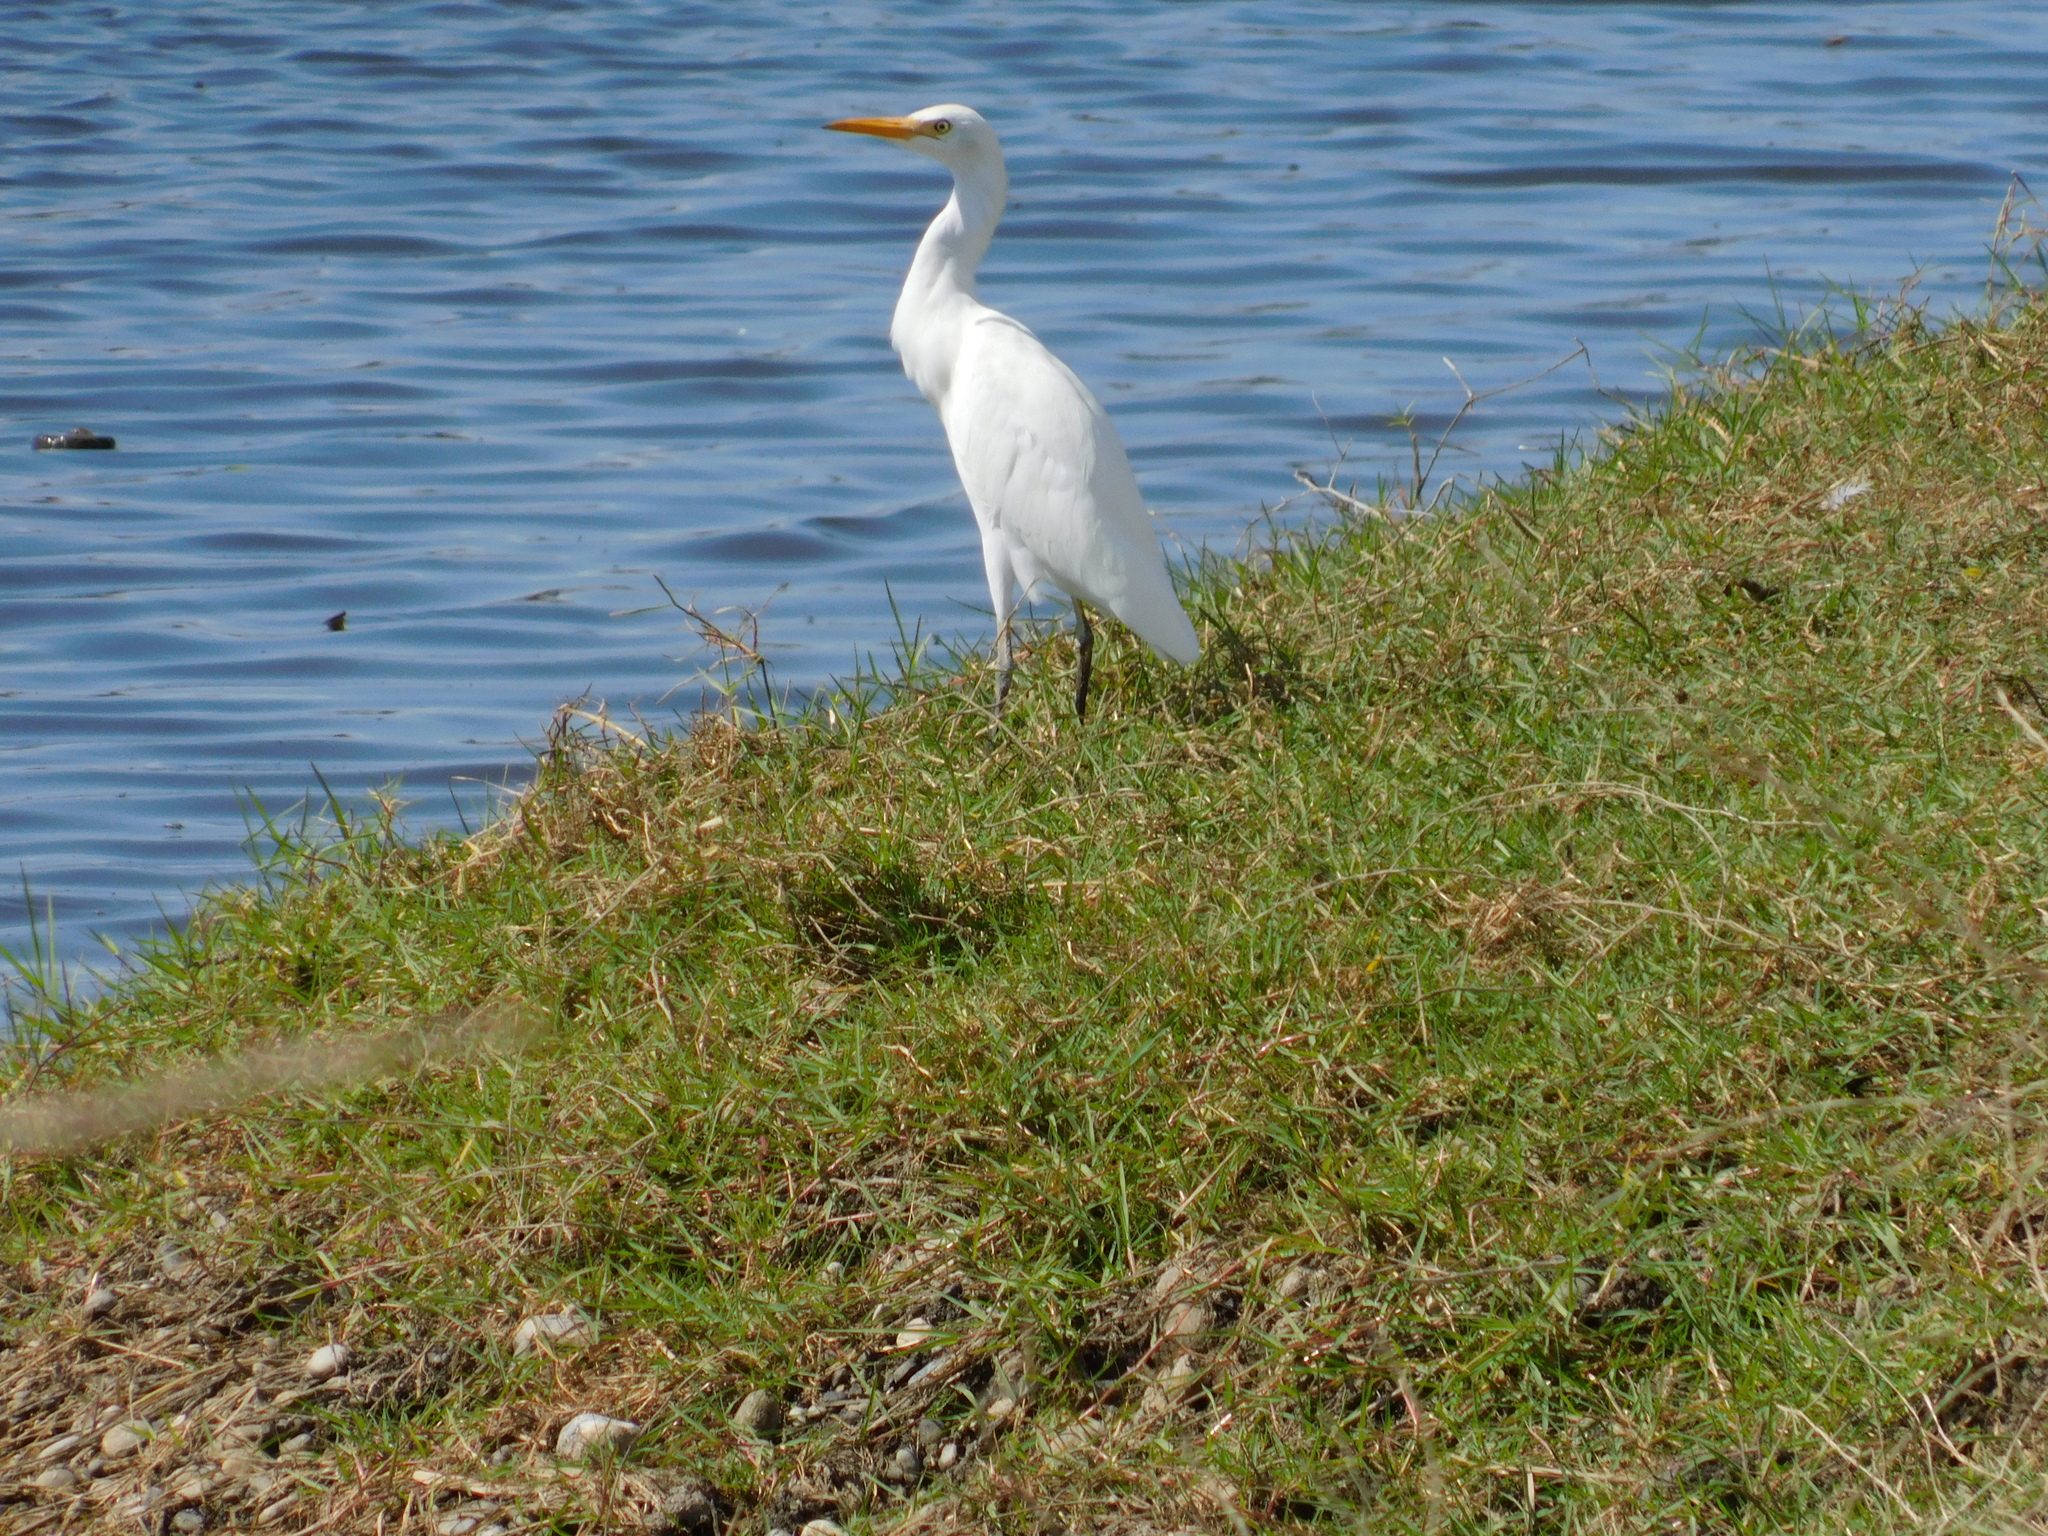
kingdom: Animalia
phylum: Chordata
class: Aves
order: Pelecaniformes
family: Ardeidae
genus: Bubulcus
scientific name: Bubulcus ibis
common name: Cattle egret
